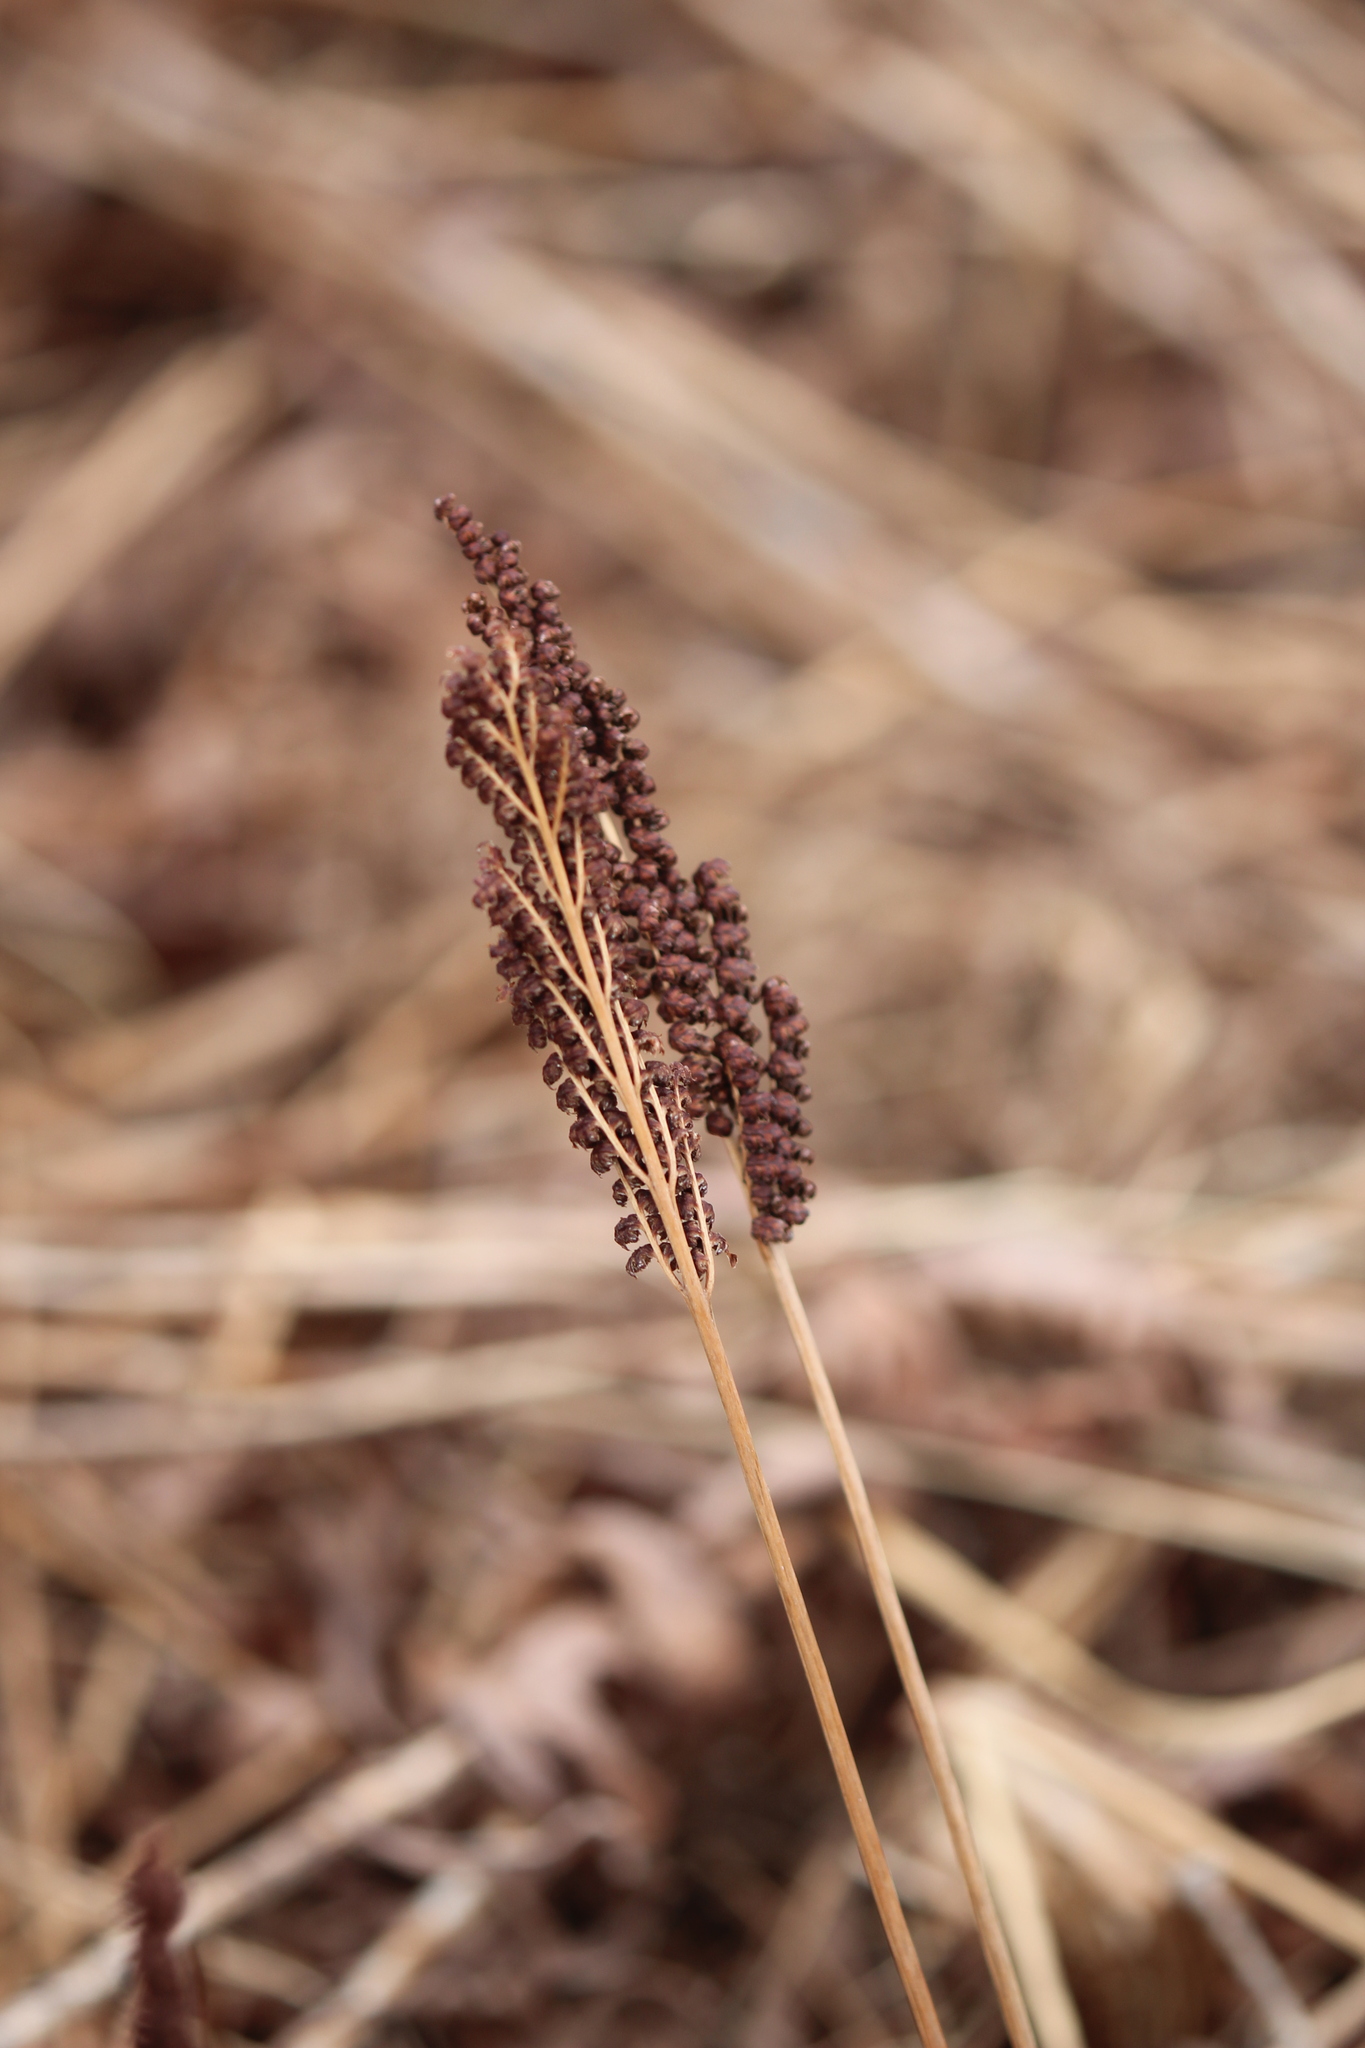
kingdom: Plantae
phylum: Tracheophyta
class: Polypodiopsida
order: Polypodiales
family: Onocleaceae
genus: Onoclea
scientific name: Onoclea sensibilis
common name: Sensitive fern
